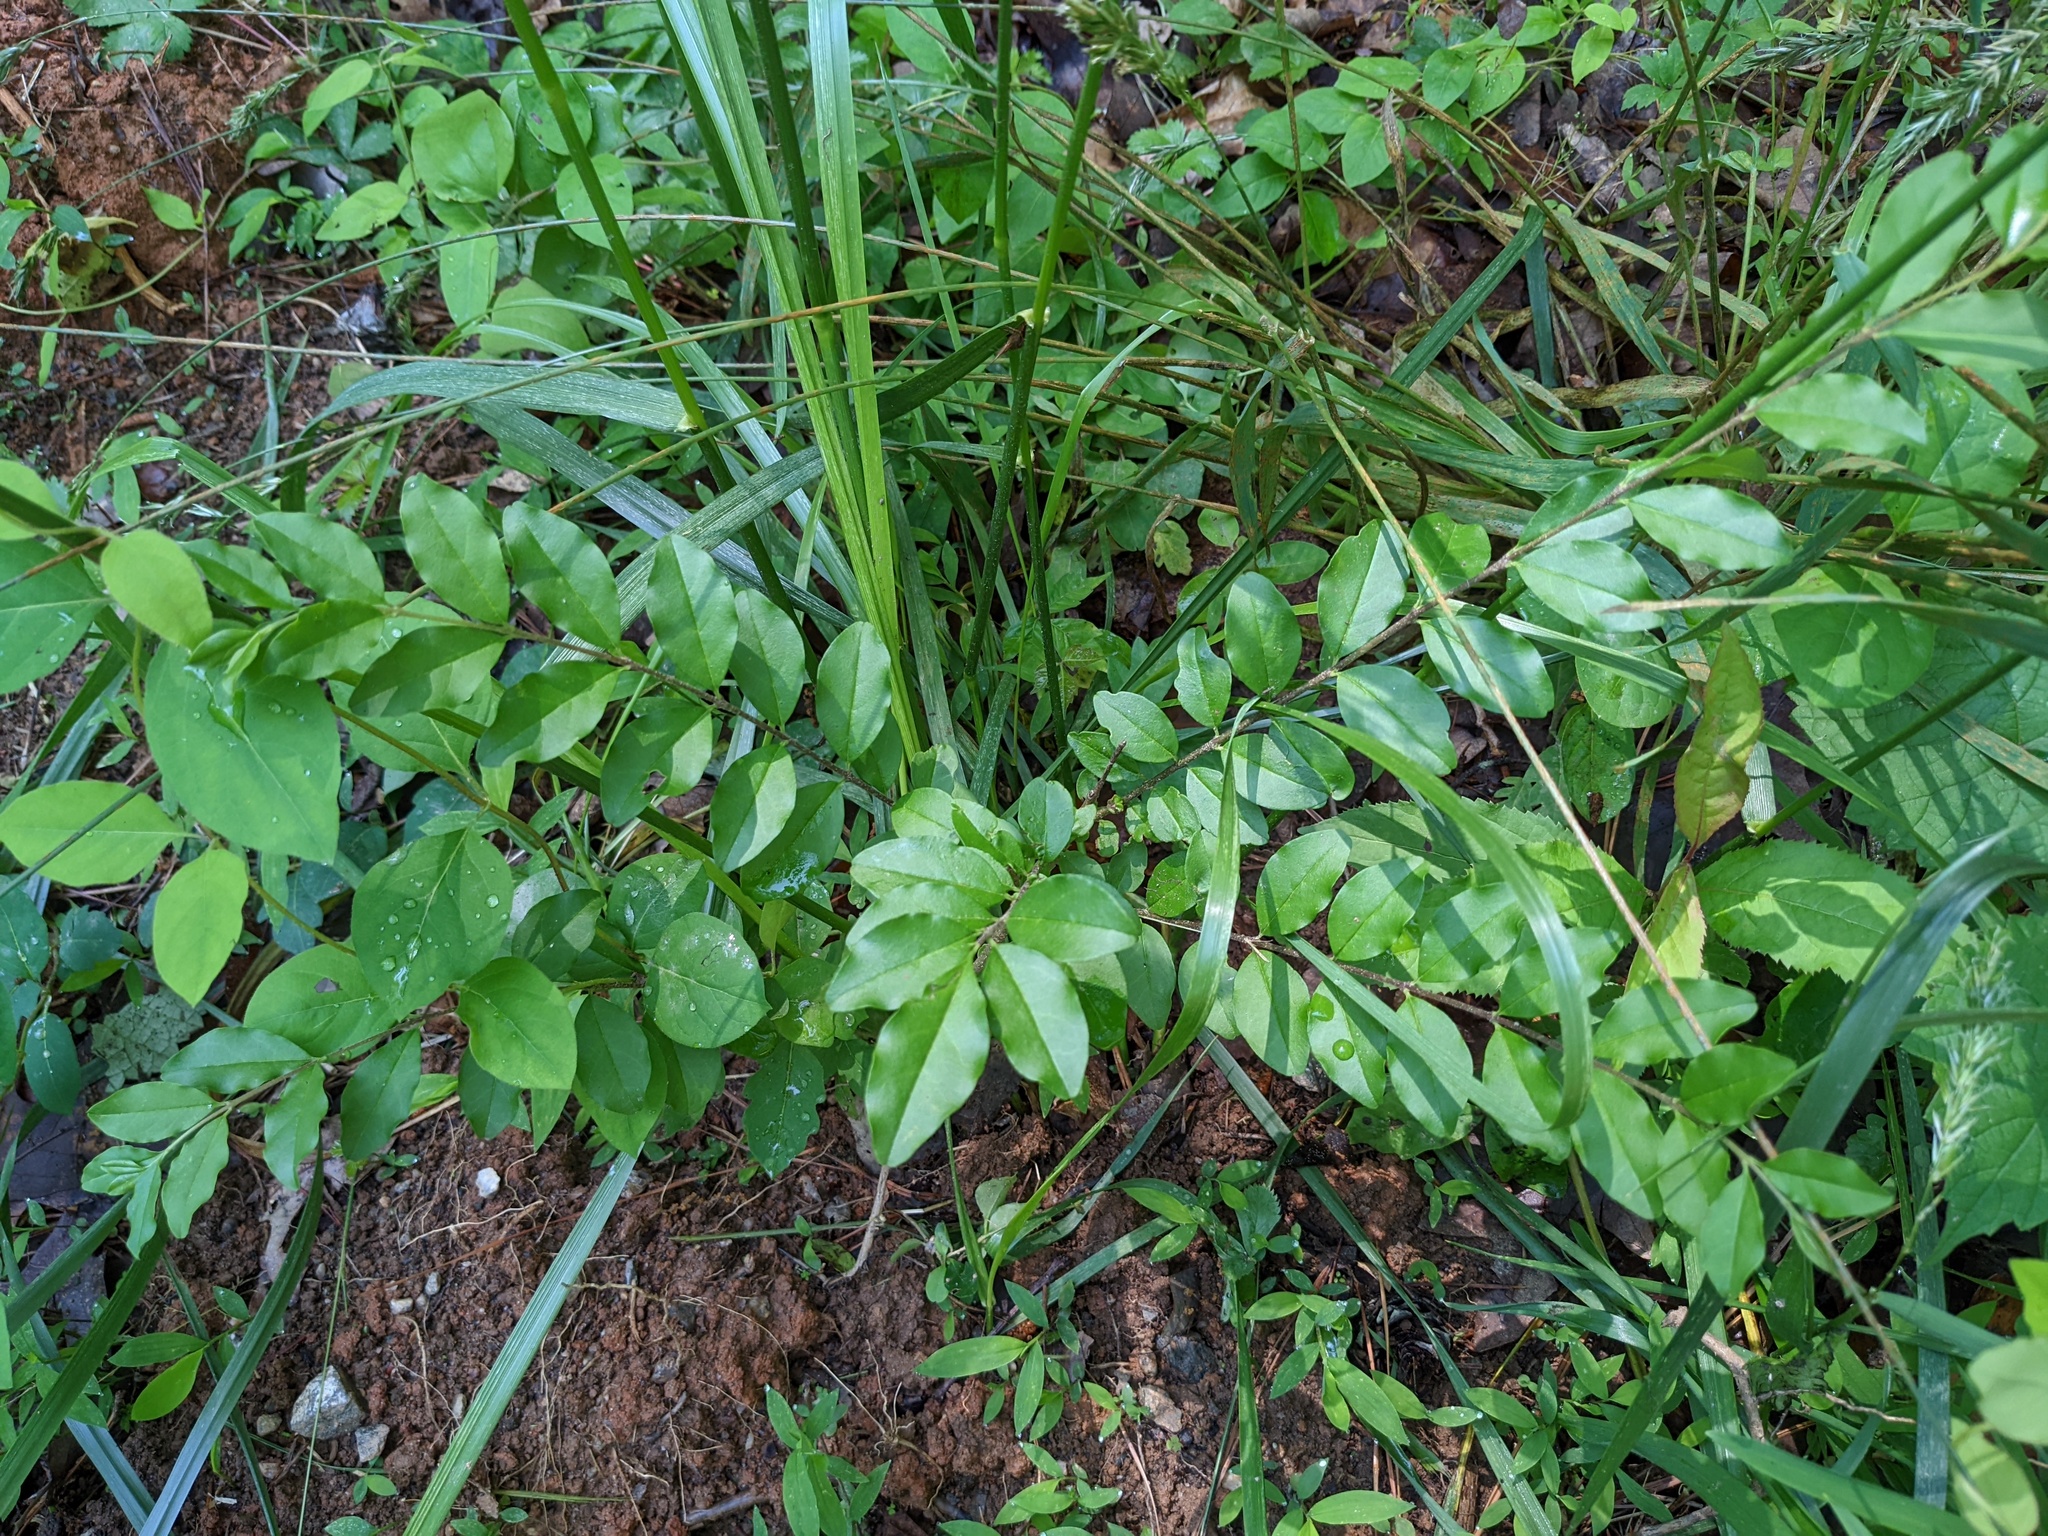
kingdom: Plantae
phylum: Tracheophyta
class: Magnoliopsida
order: Lamiales
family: Oleaceae
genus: Ligustrum
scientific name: Ligustrum sinense
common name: Chinese privet
